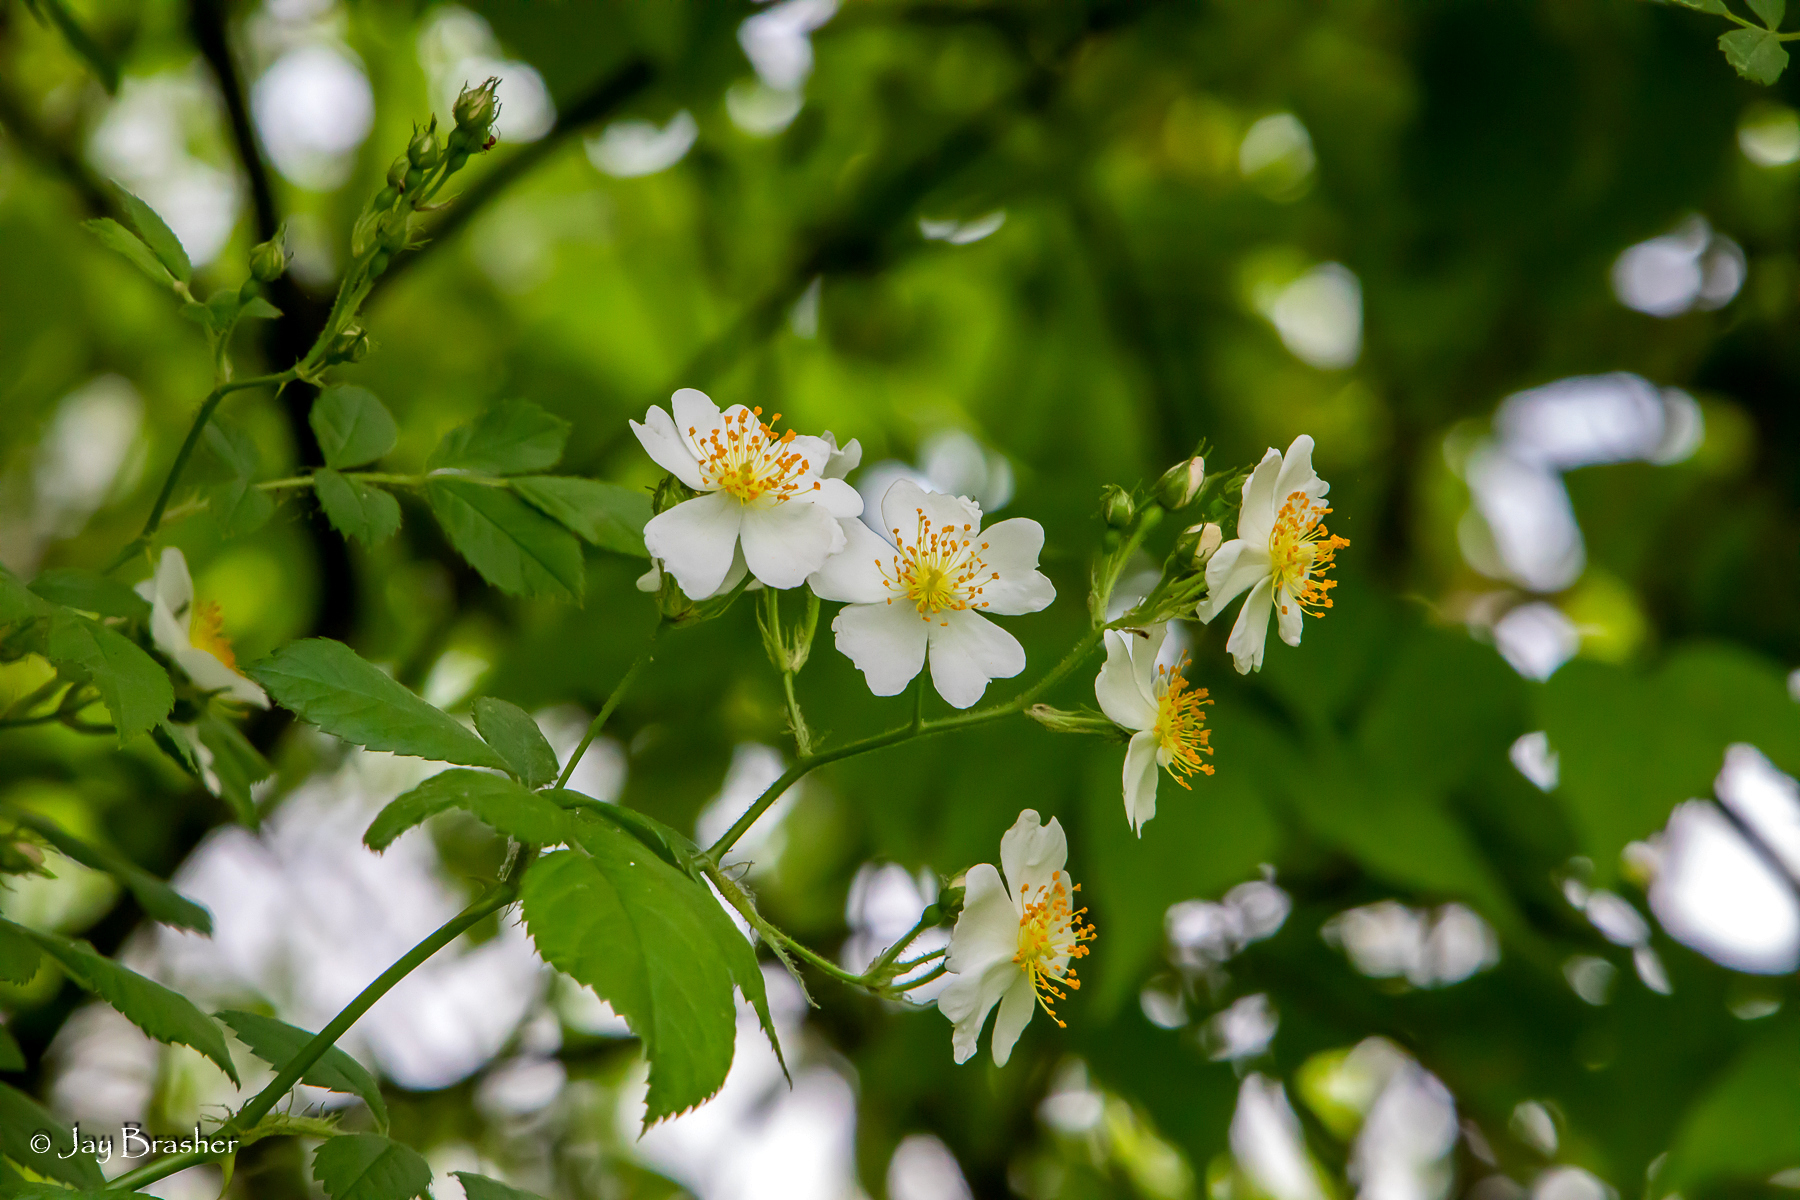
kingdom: Plantae
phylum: Tracheophyta
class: Magnoliopsida
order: Rosales
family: Rosaceae
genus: Rosa
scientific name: Rosa multiflora
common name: Multiflora rose
